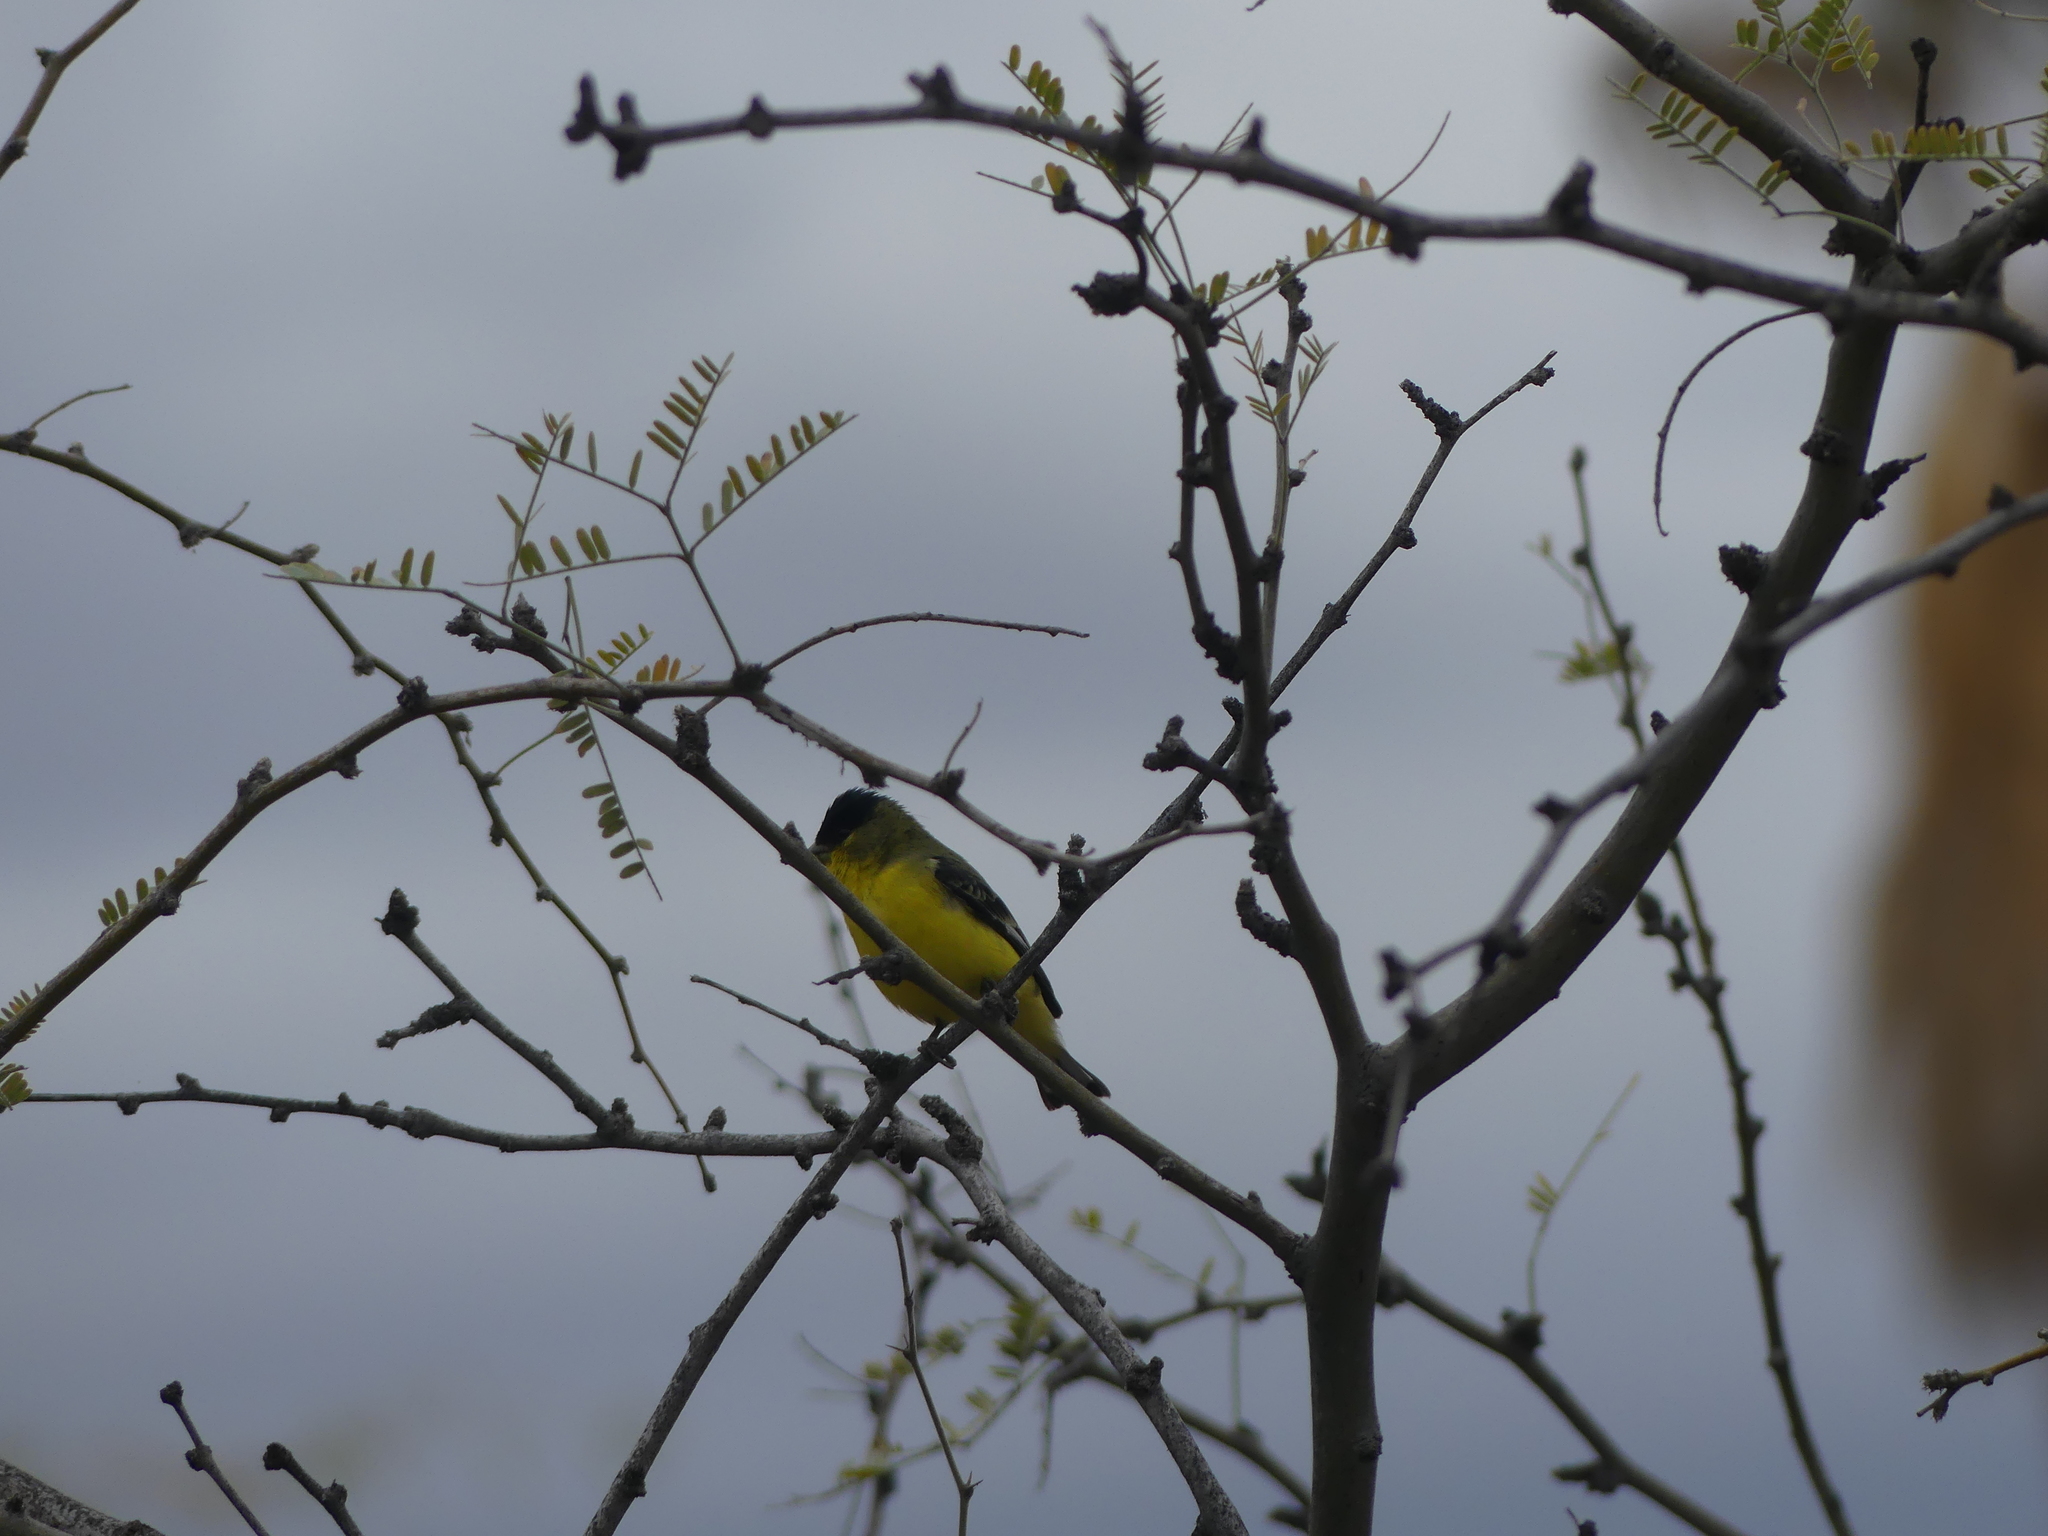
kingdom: Animalia
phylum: Chordata
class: Aves
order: Passeriformes
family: Fringillidae
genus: Spinus
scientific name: Spinus psaltria
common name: Lesser goldfinch
